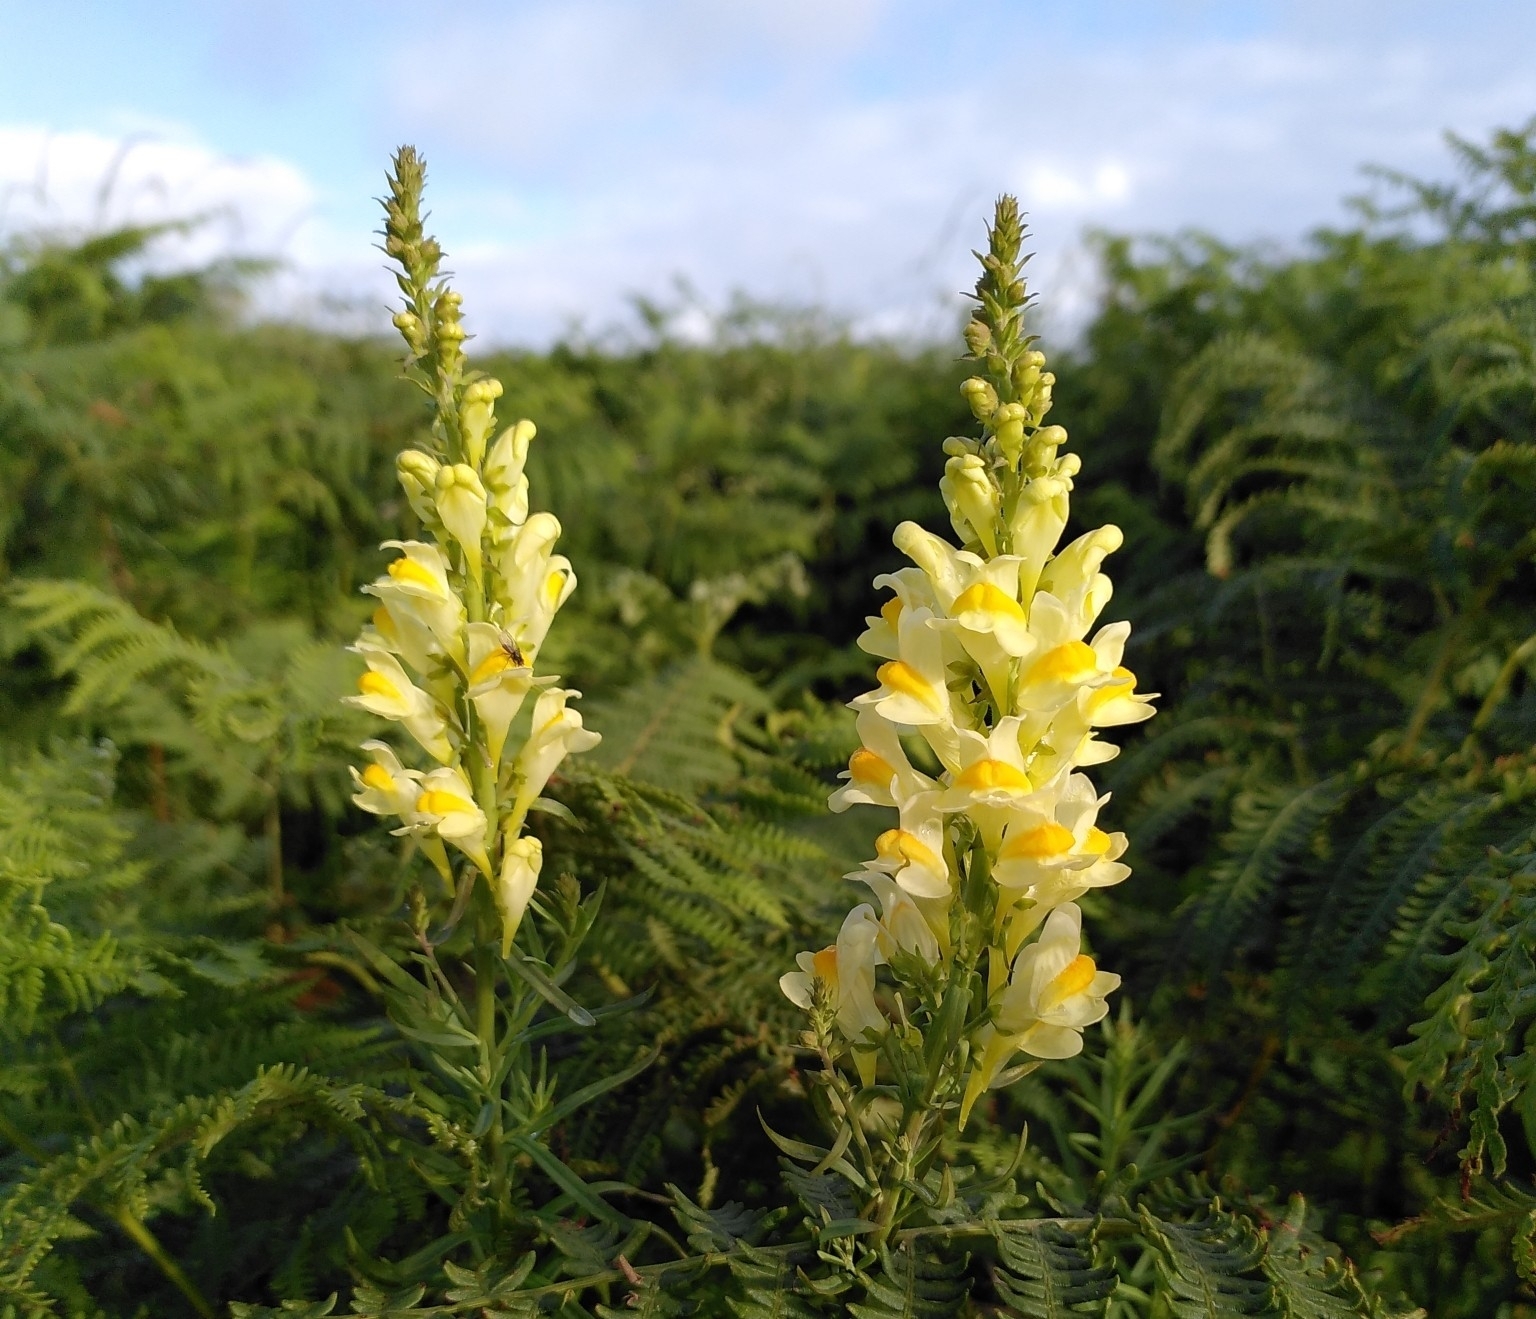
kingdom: Plantae
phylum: Tracheophyta
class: Magnoliopsida
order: Lamiales
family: Plantaginaceae
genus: Linaria
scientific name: Linaria vulgaris
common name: Butter and eggs
